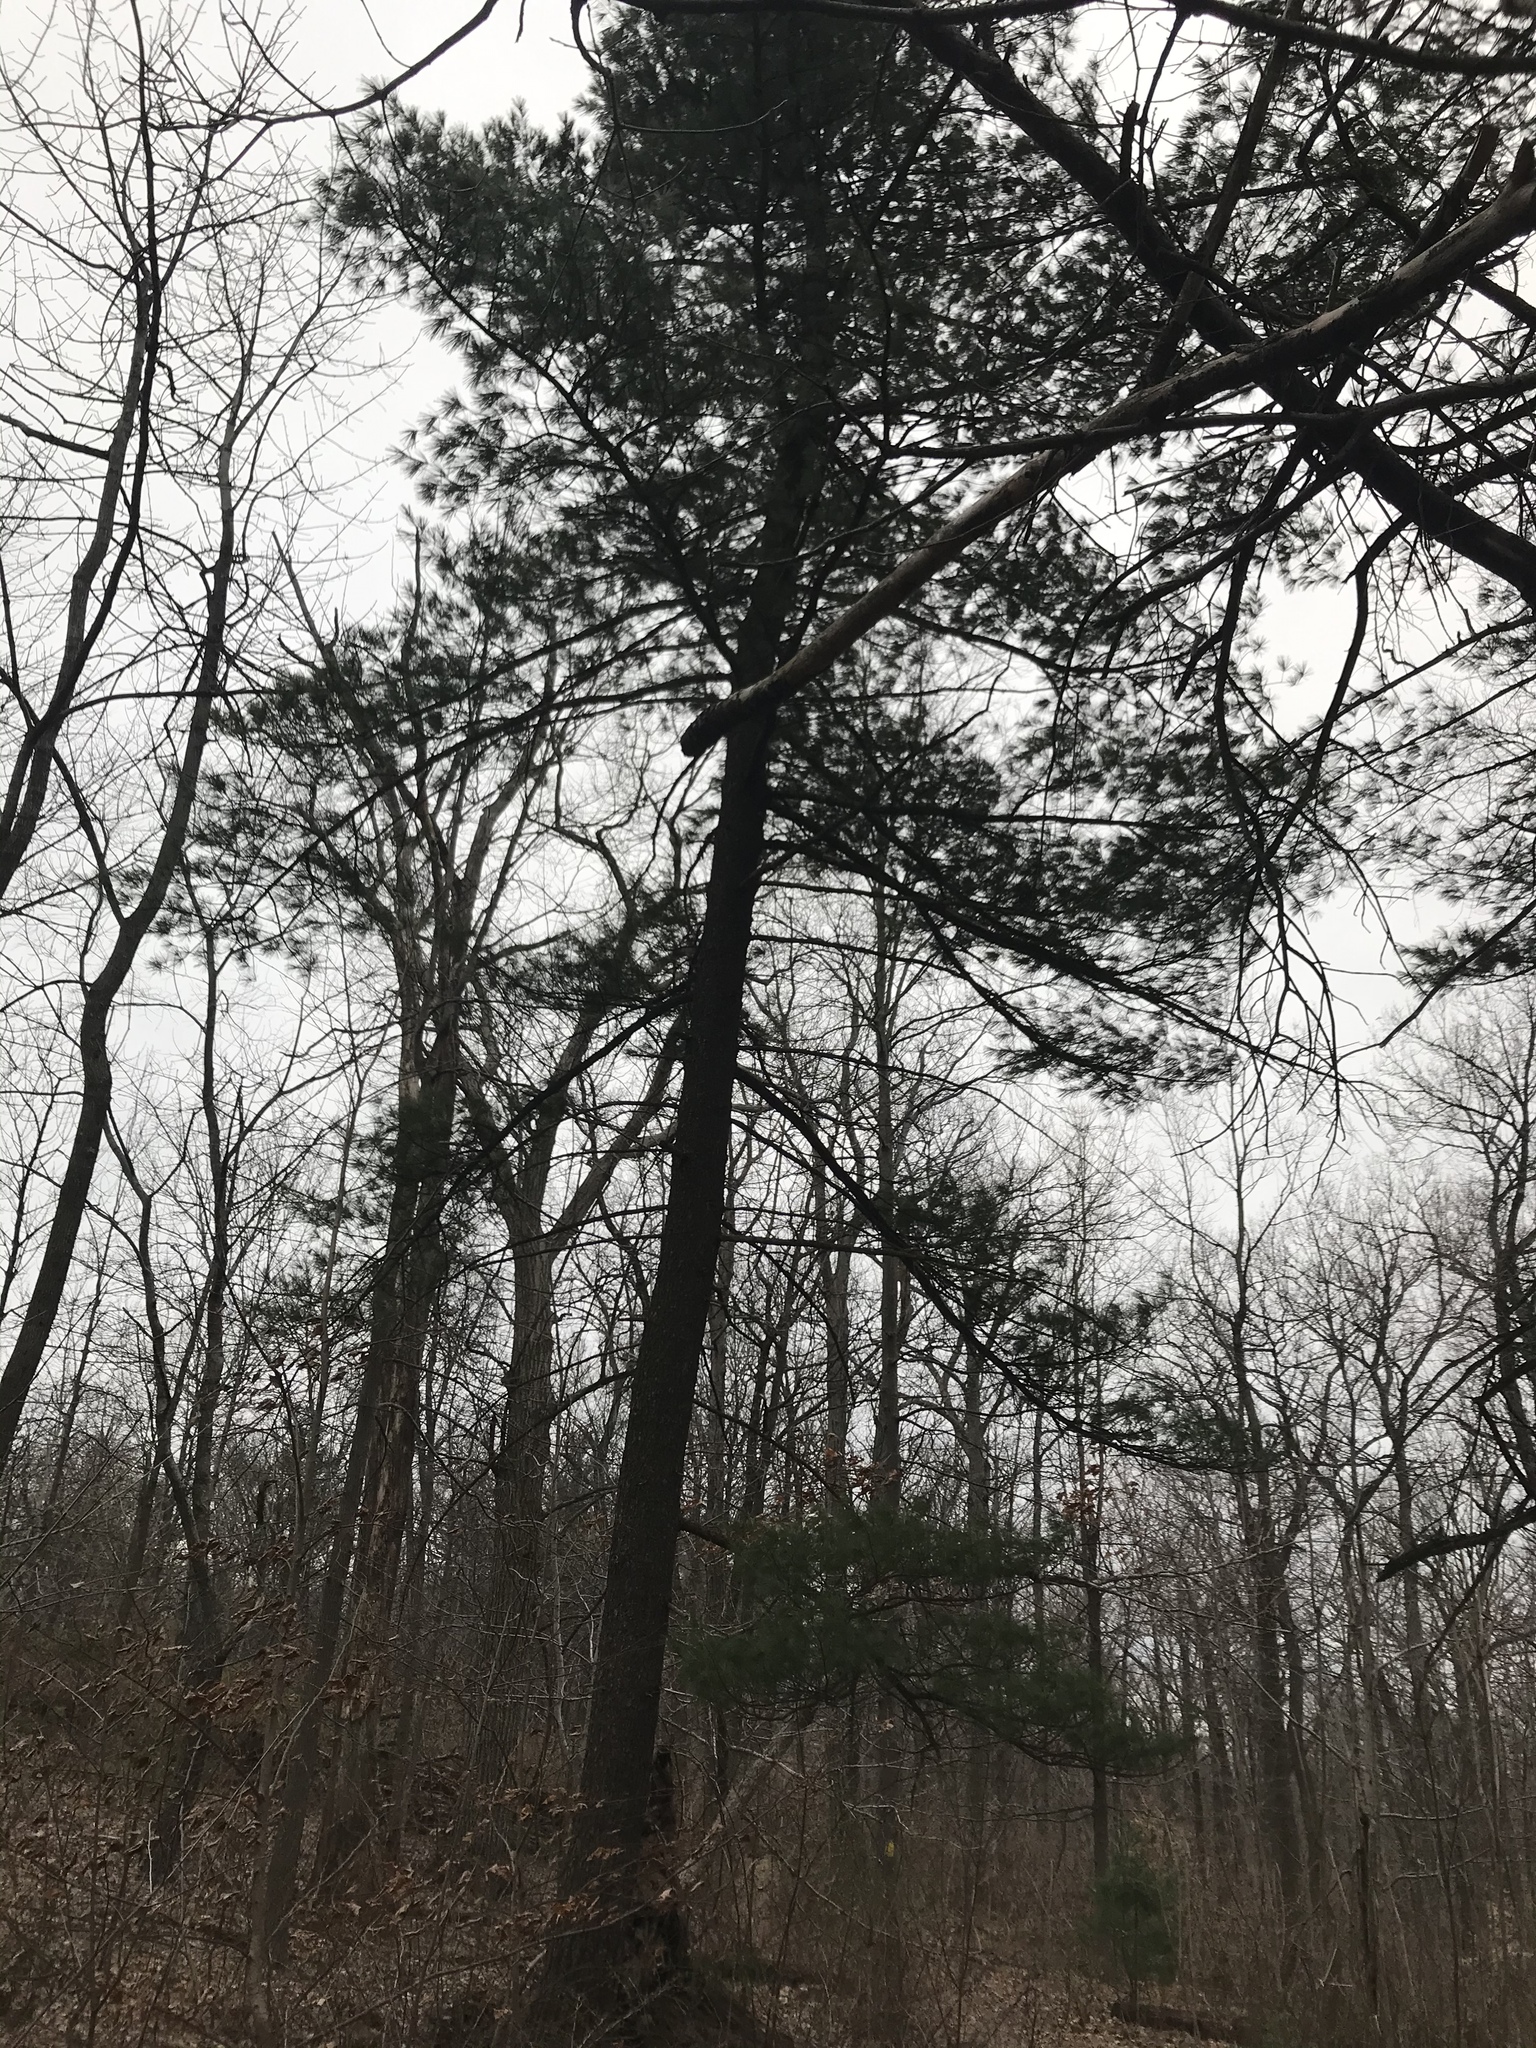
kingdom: Plantae
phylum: Tracheophyta
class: Pinopsida
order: Pinales
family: Pinaceae
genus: Pinus
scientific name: Pinus strobus
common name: Weymouth pine
